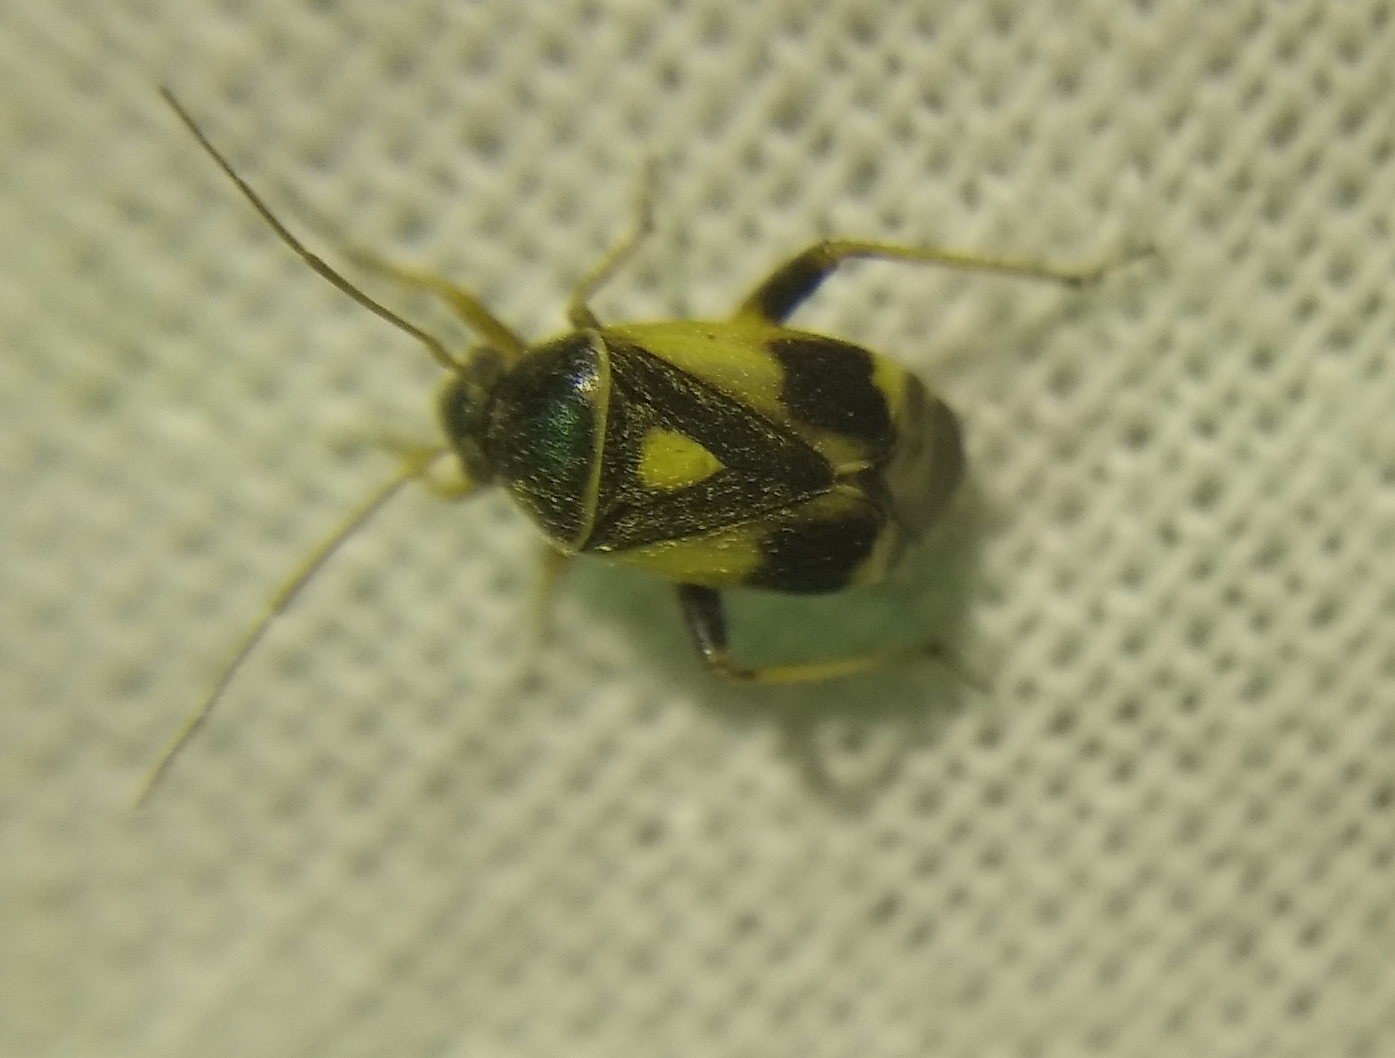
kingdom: Animalia
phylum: Arthropoda
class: Insecta
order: Hemiptera
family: Miridae
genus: Polymerus
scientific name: Polymerus brevicornis
